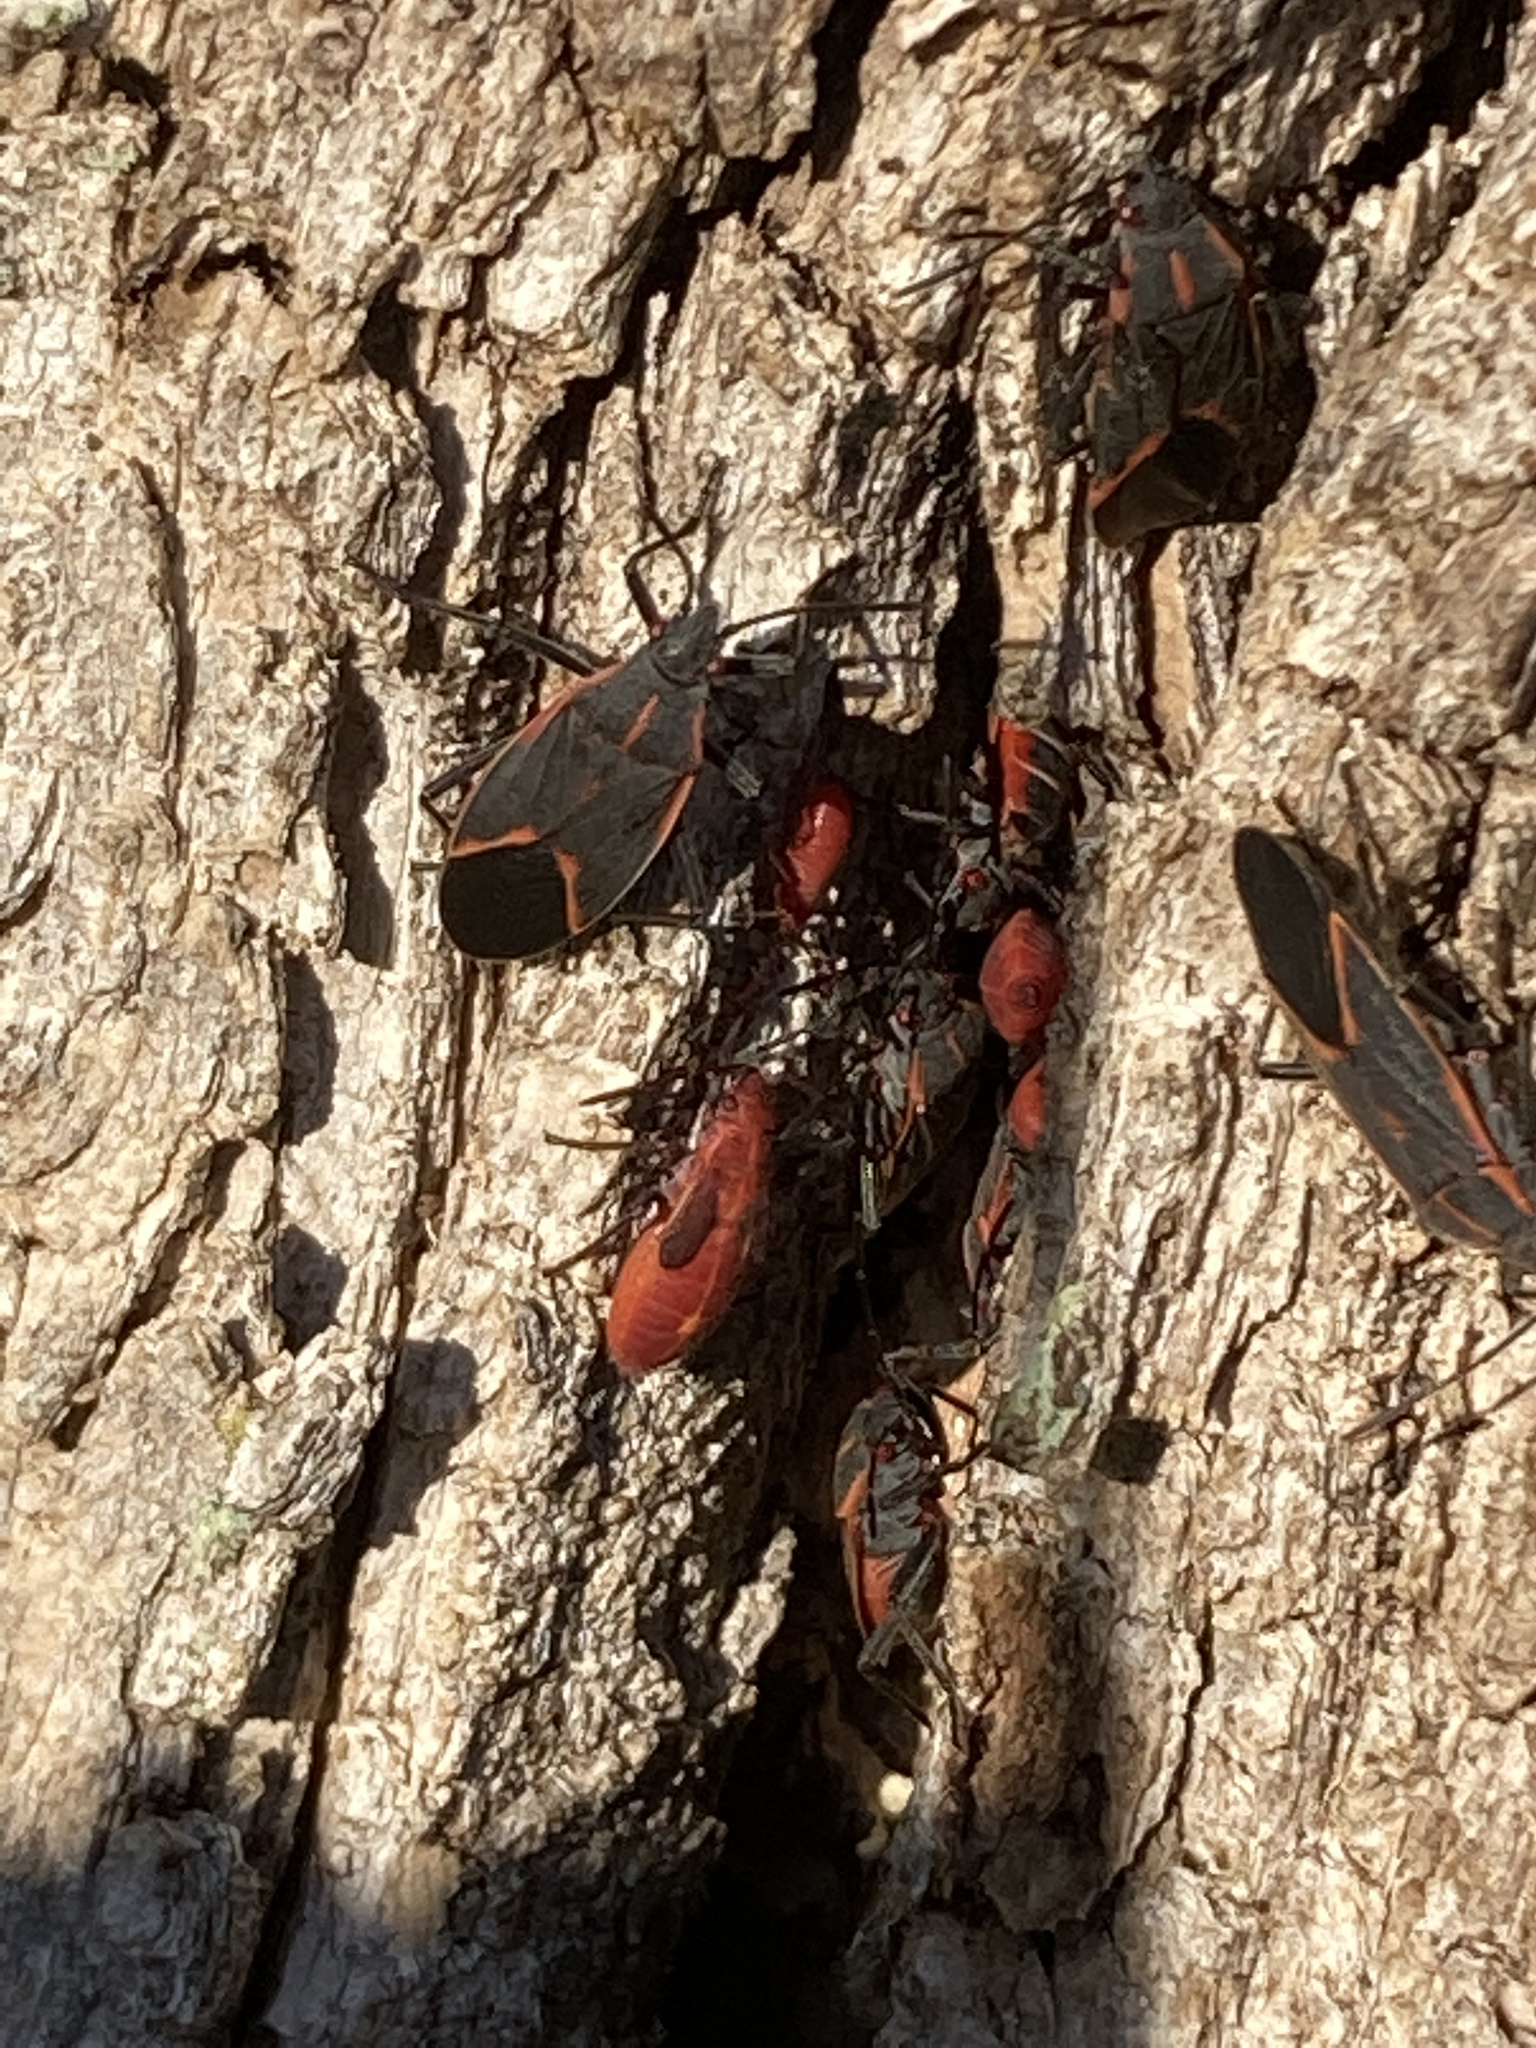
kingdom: Animalia
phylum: Arthropoda
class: Insecta
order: Hemiptera
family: Rhopalidae
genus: Boisea
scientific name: Boisea trivittata
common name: Boxelder bug
